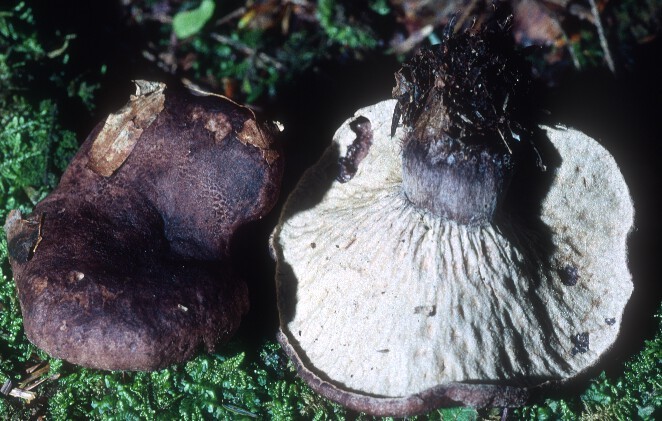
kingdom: Fungi
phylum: Ascomycota
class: Sordariomycetes
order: Hypocreales
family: Hypocreaceae
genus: Hypomyces
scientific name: Hypomyces lateritius
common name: Ochre gillgobbler
